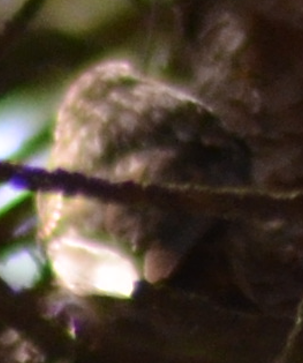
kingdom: Animalia
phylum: Chordata
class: Aves
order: Passeriformes
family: Certhiidae
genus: Certhia
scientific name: Certhia brachydactyla
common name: Short-toed treecreeper
